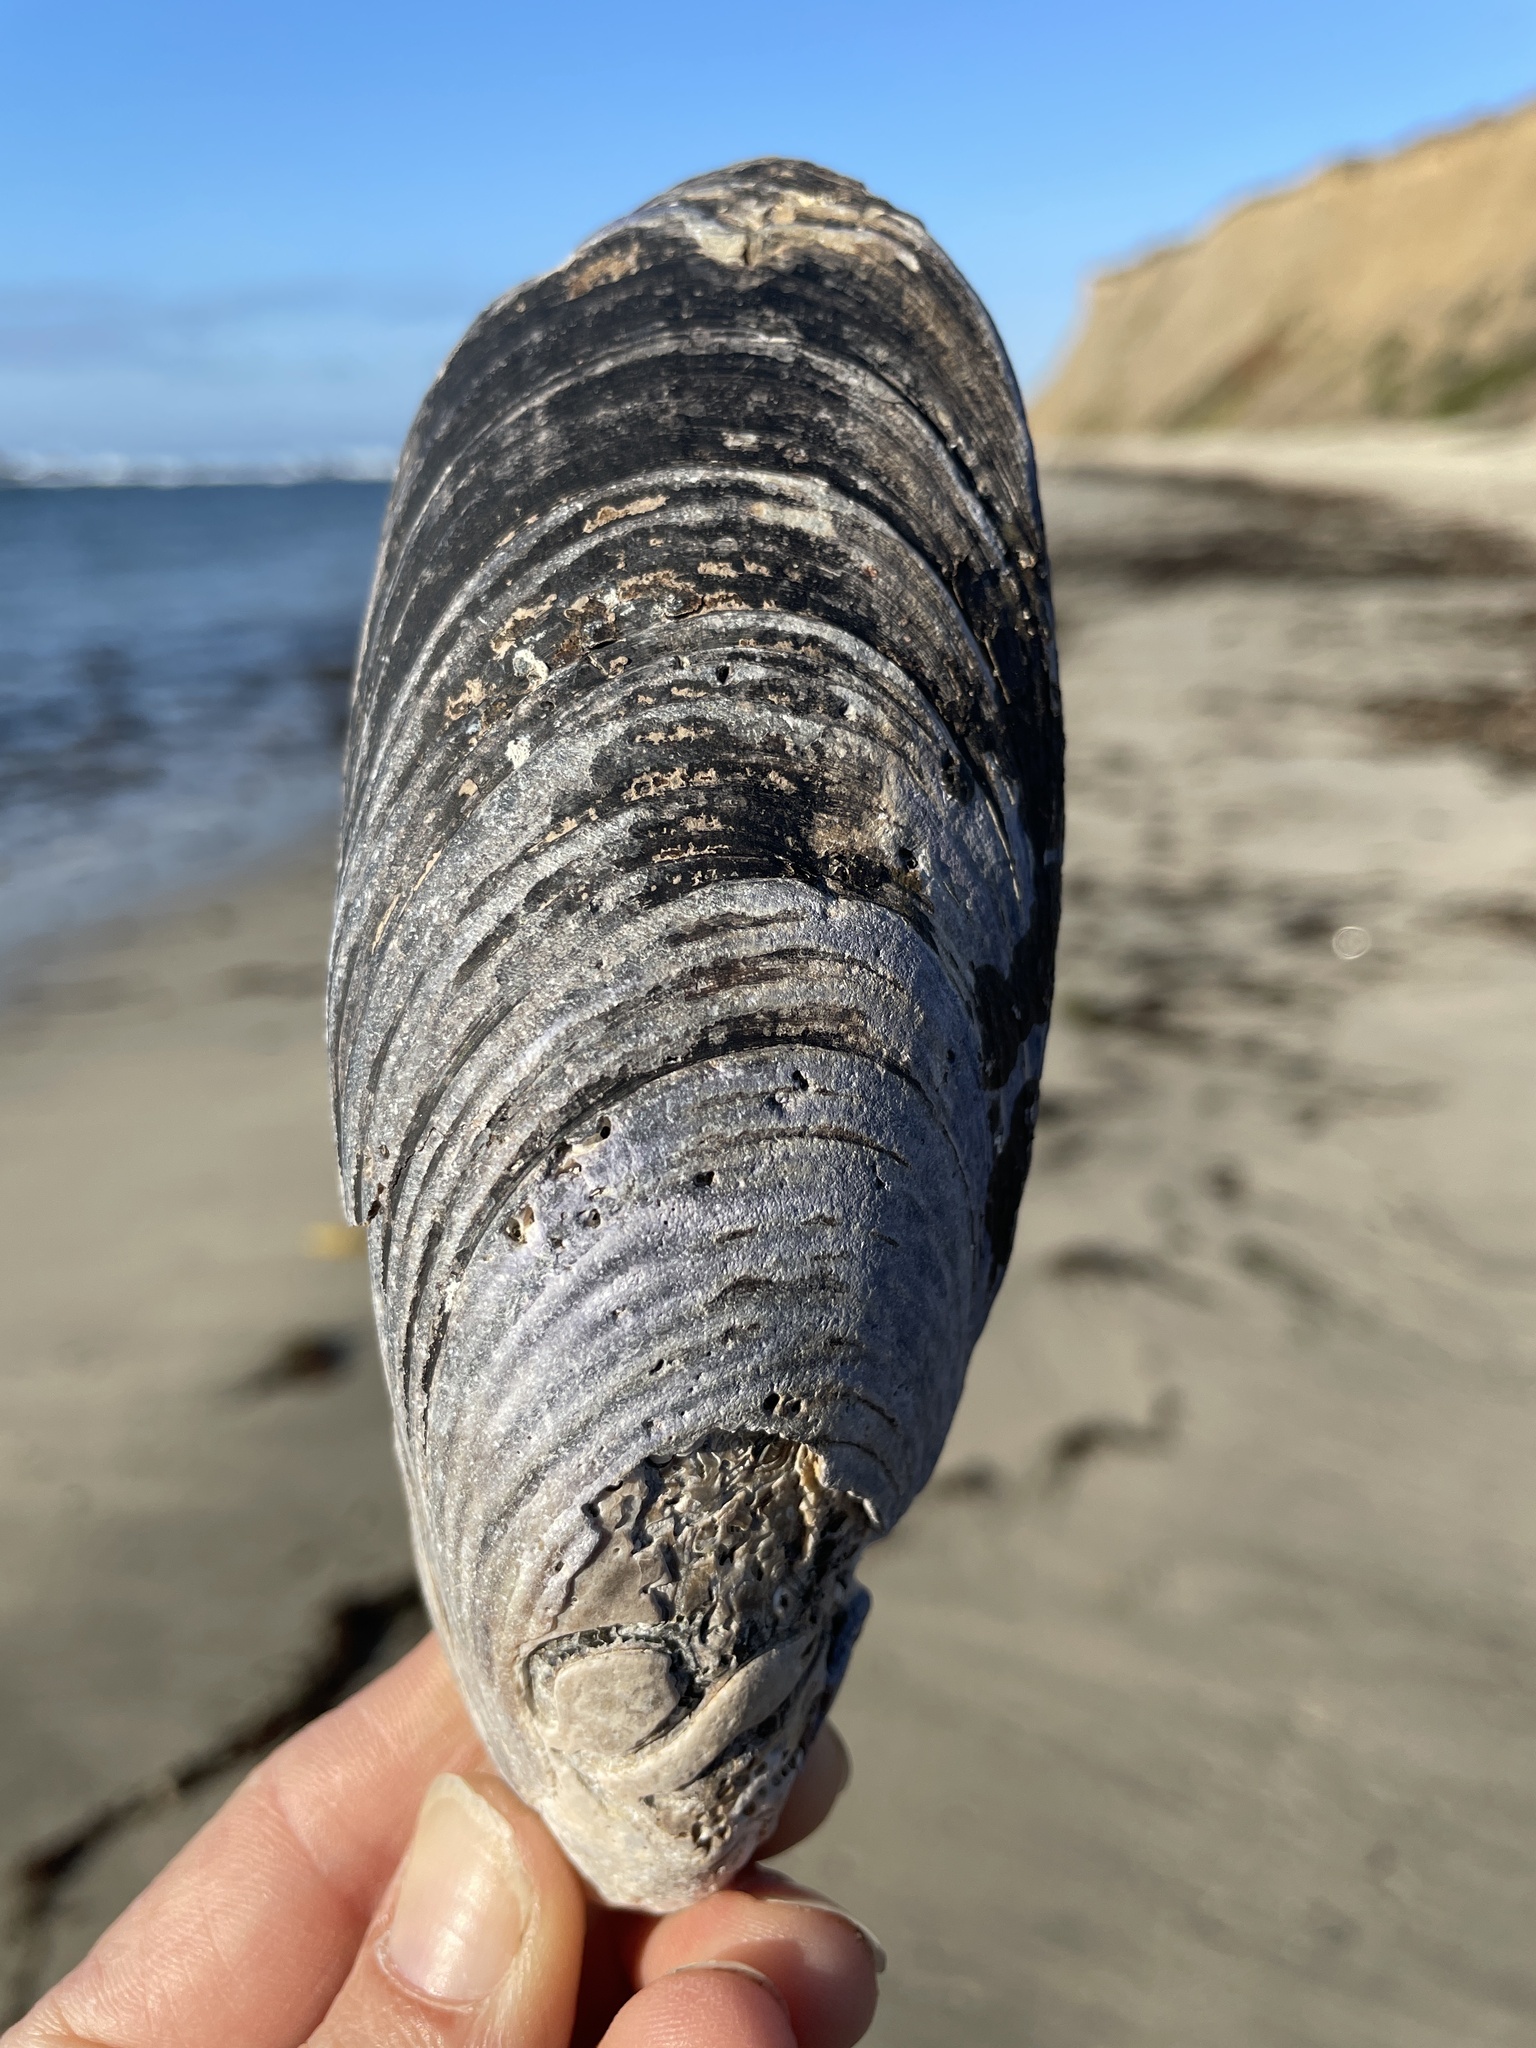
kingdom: Animalia
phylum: Mollusca
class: Bivalvia
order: Mytilida
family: Mytilidae
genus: Mytilus
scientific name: Mytilus californianus
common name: California mussel
